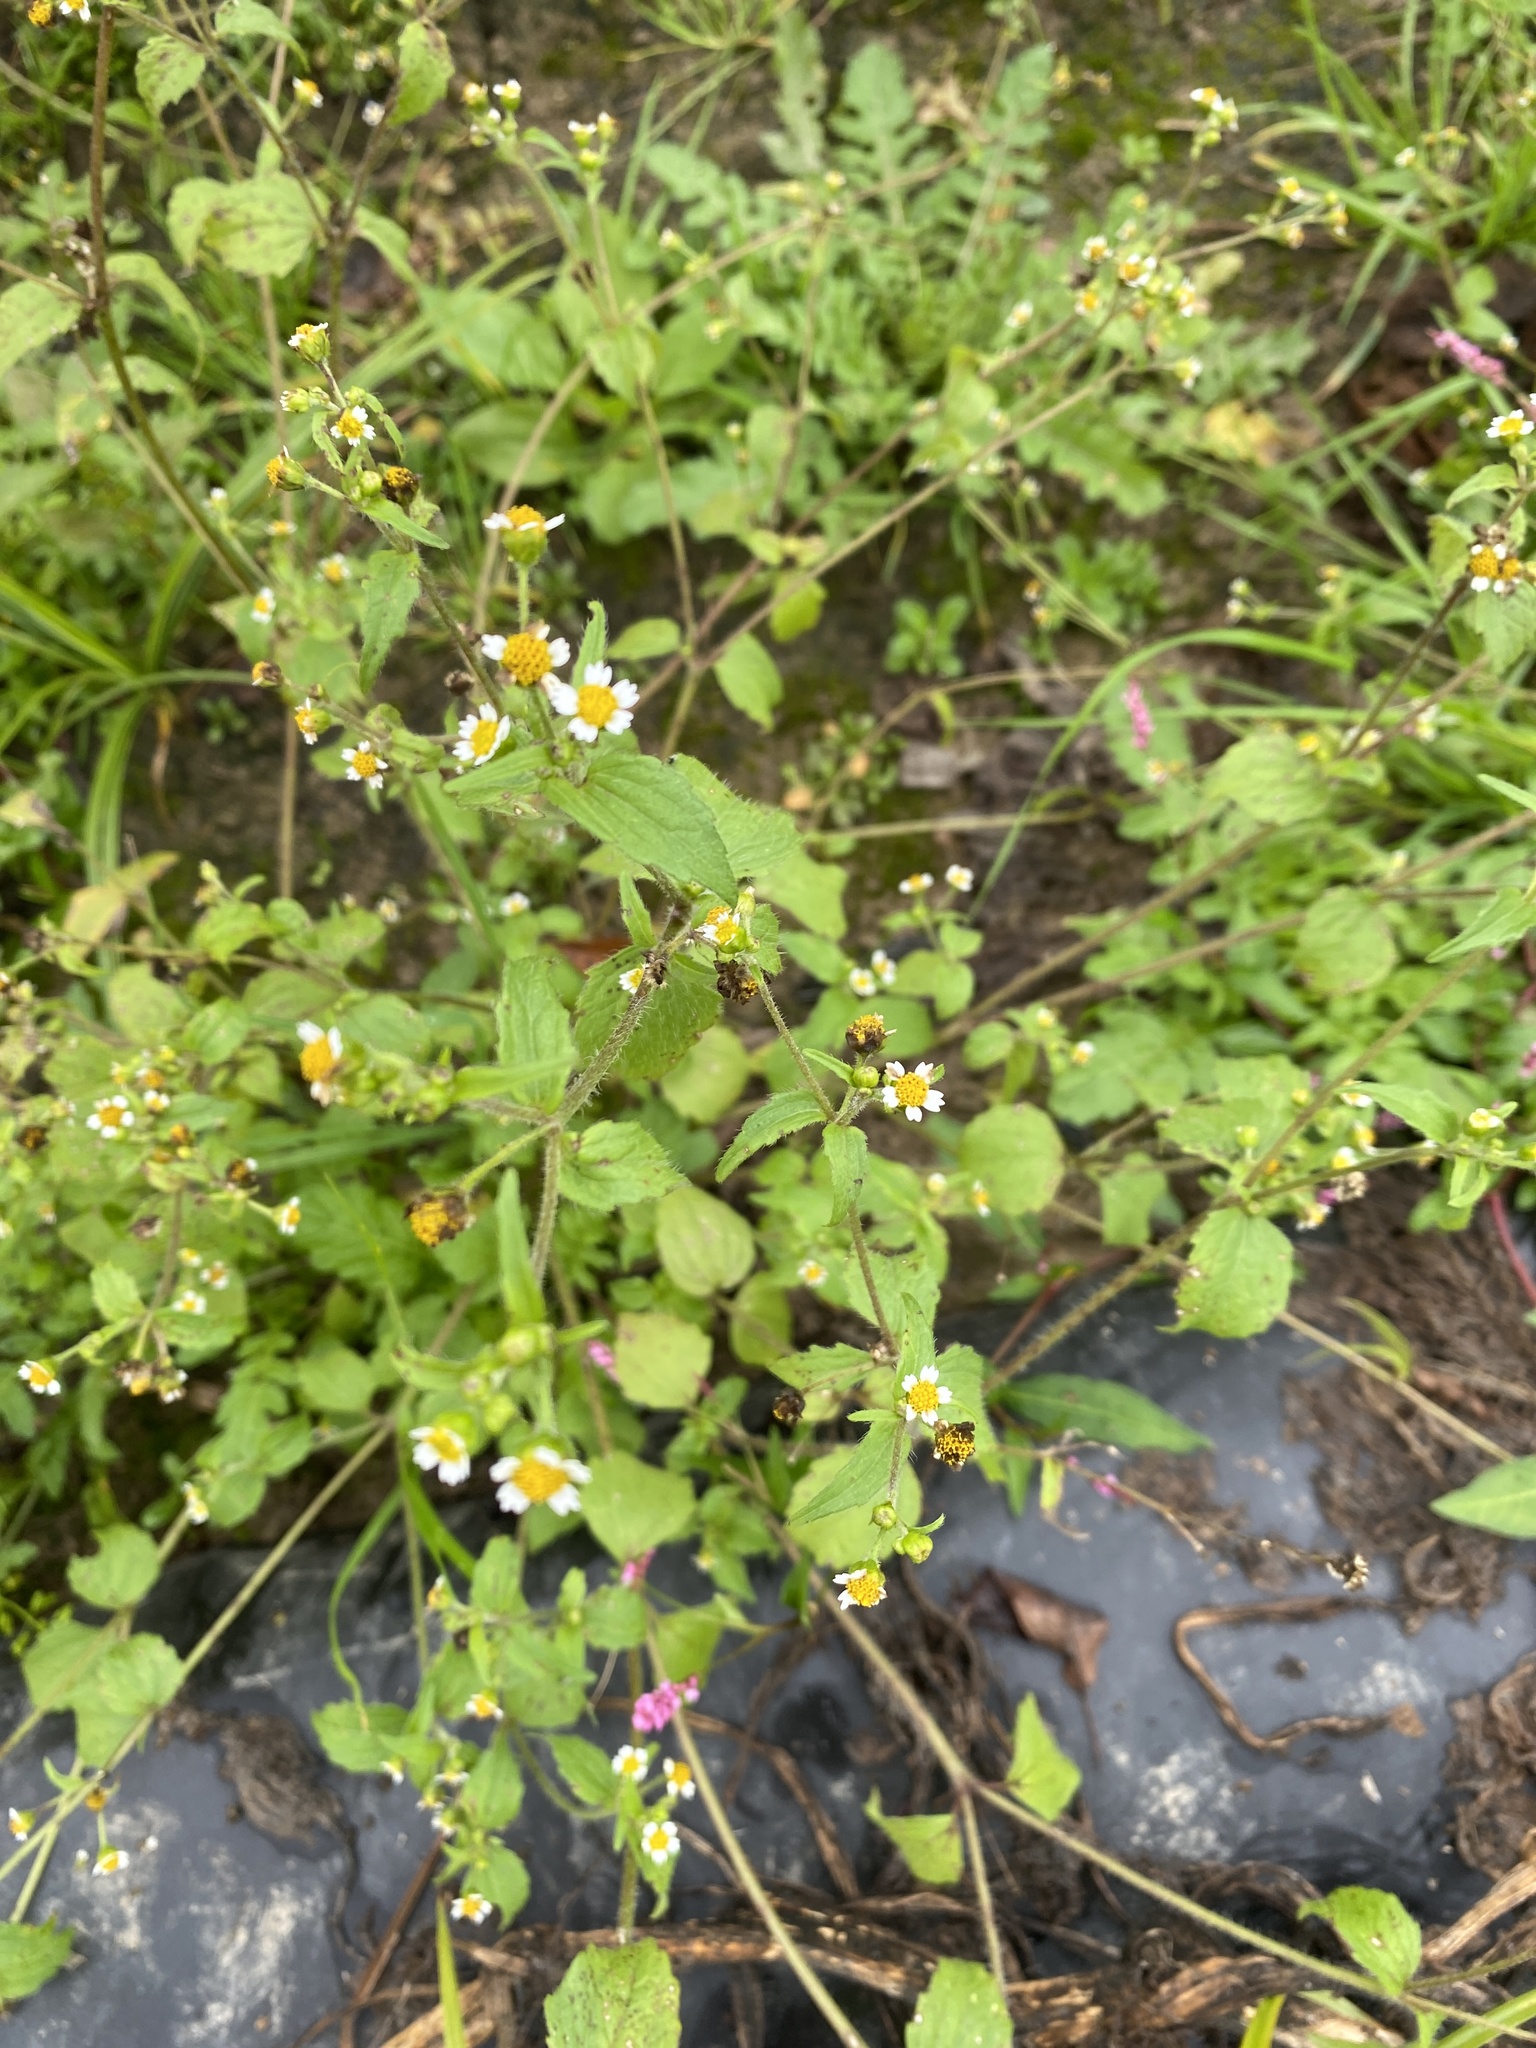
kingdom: Plantae
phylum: Tracheophyta
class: Magnoliopsida
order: Asterales
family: Asteraceae
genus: Galinsoga
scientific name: Galinsoga quadriradiata
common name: Shaggy soldier
